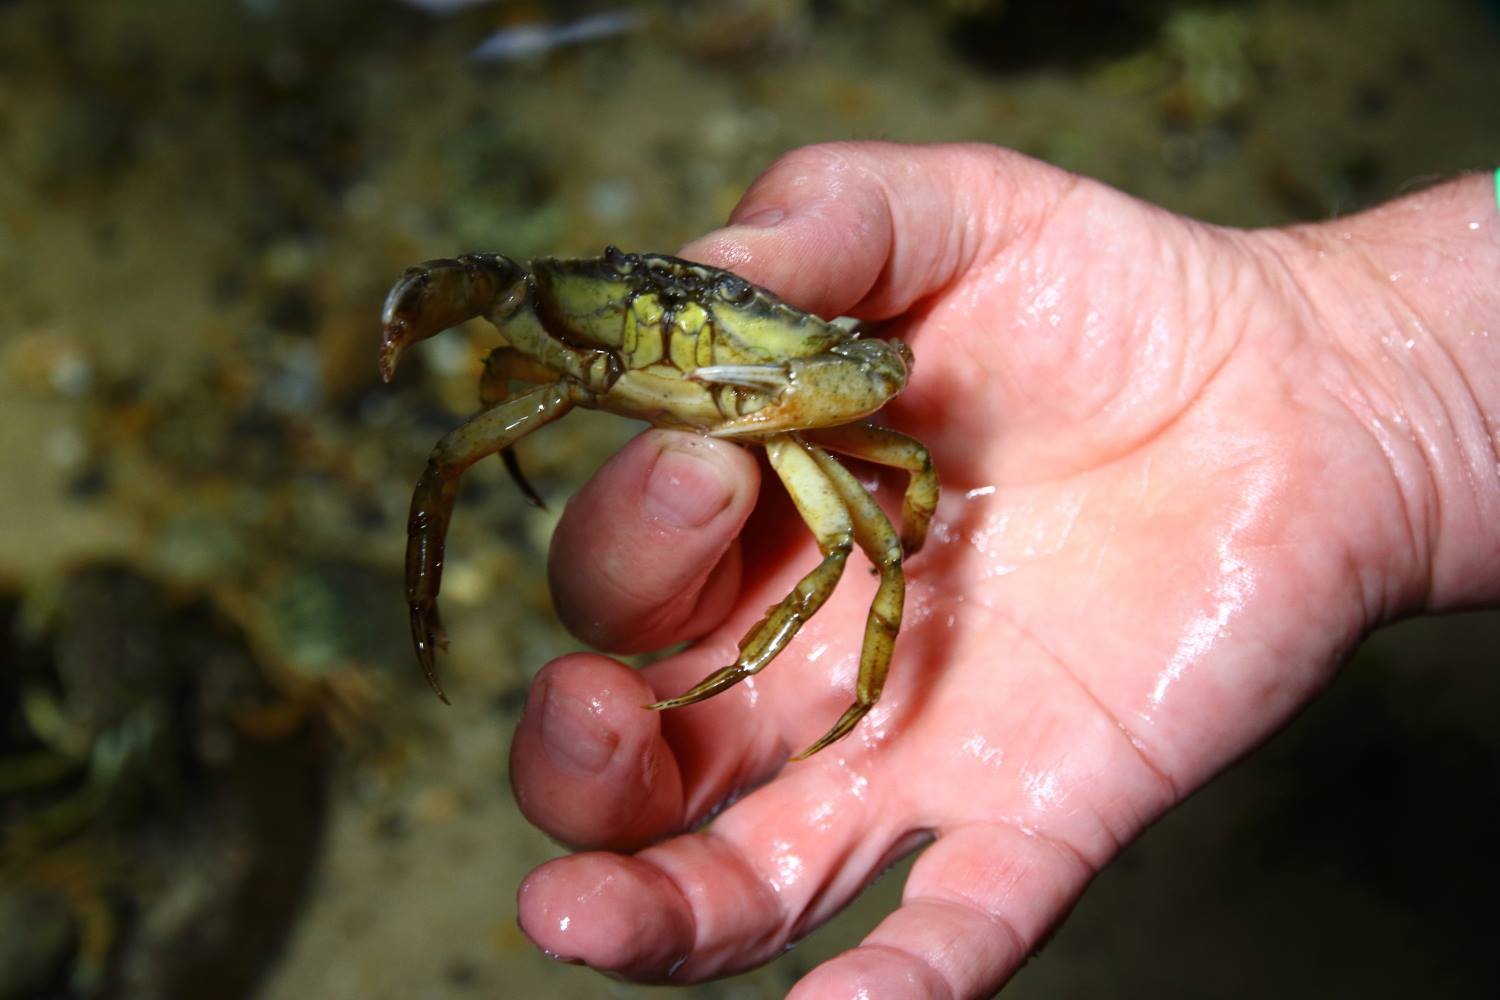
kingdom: Animalia
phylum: Arthropoda
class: Malacostraca
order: Decapoda
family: Carcinidae
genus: Carcinus
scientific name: Carcinus maenas
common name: European green crab
